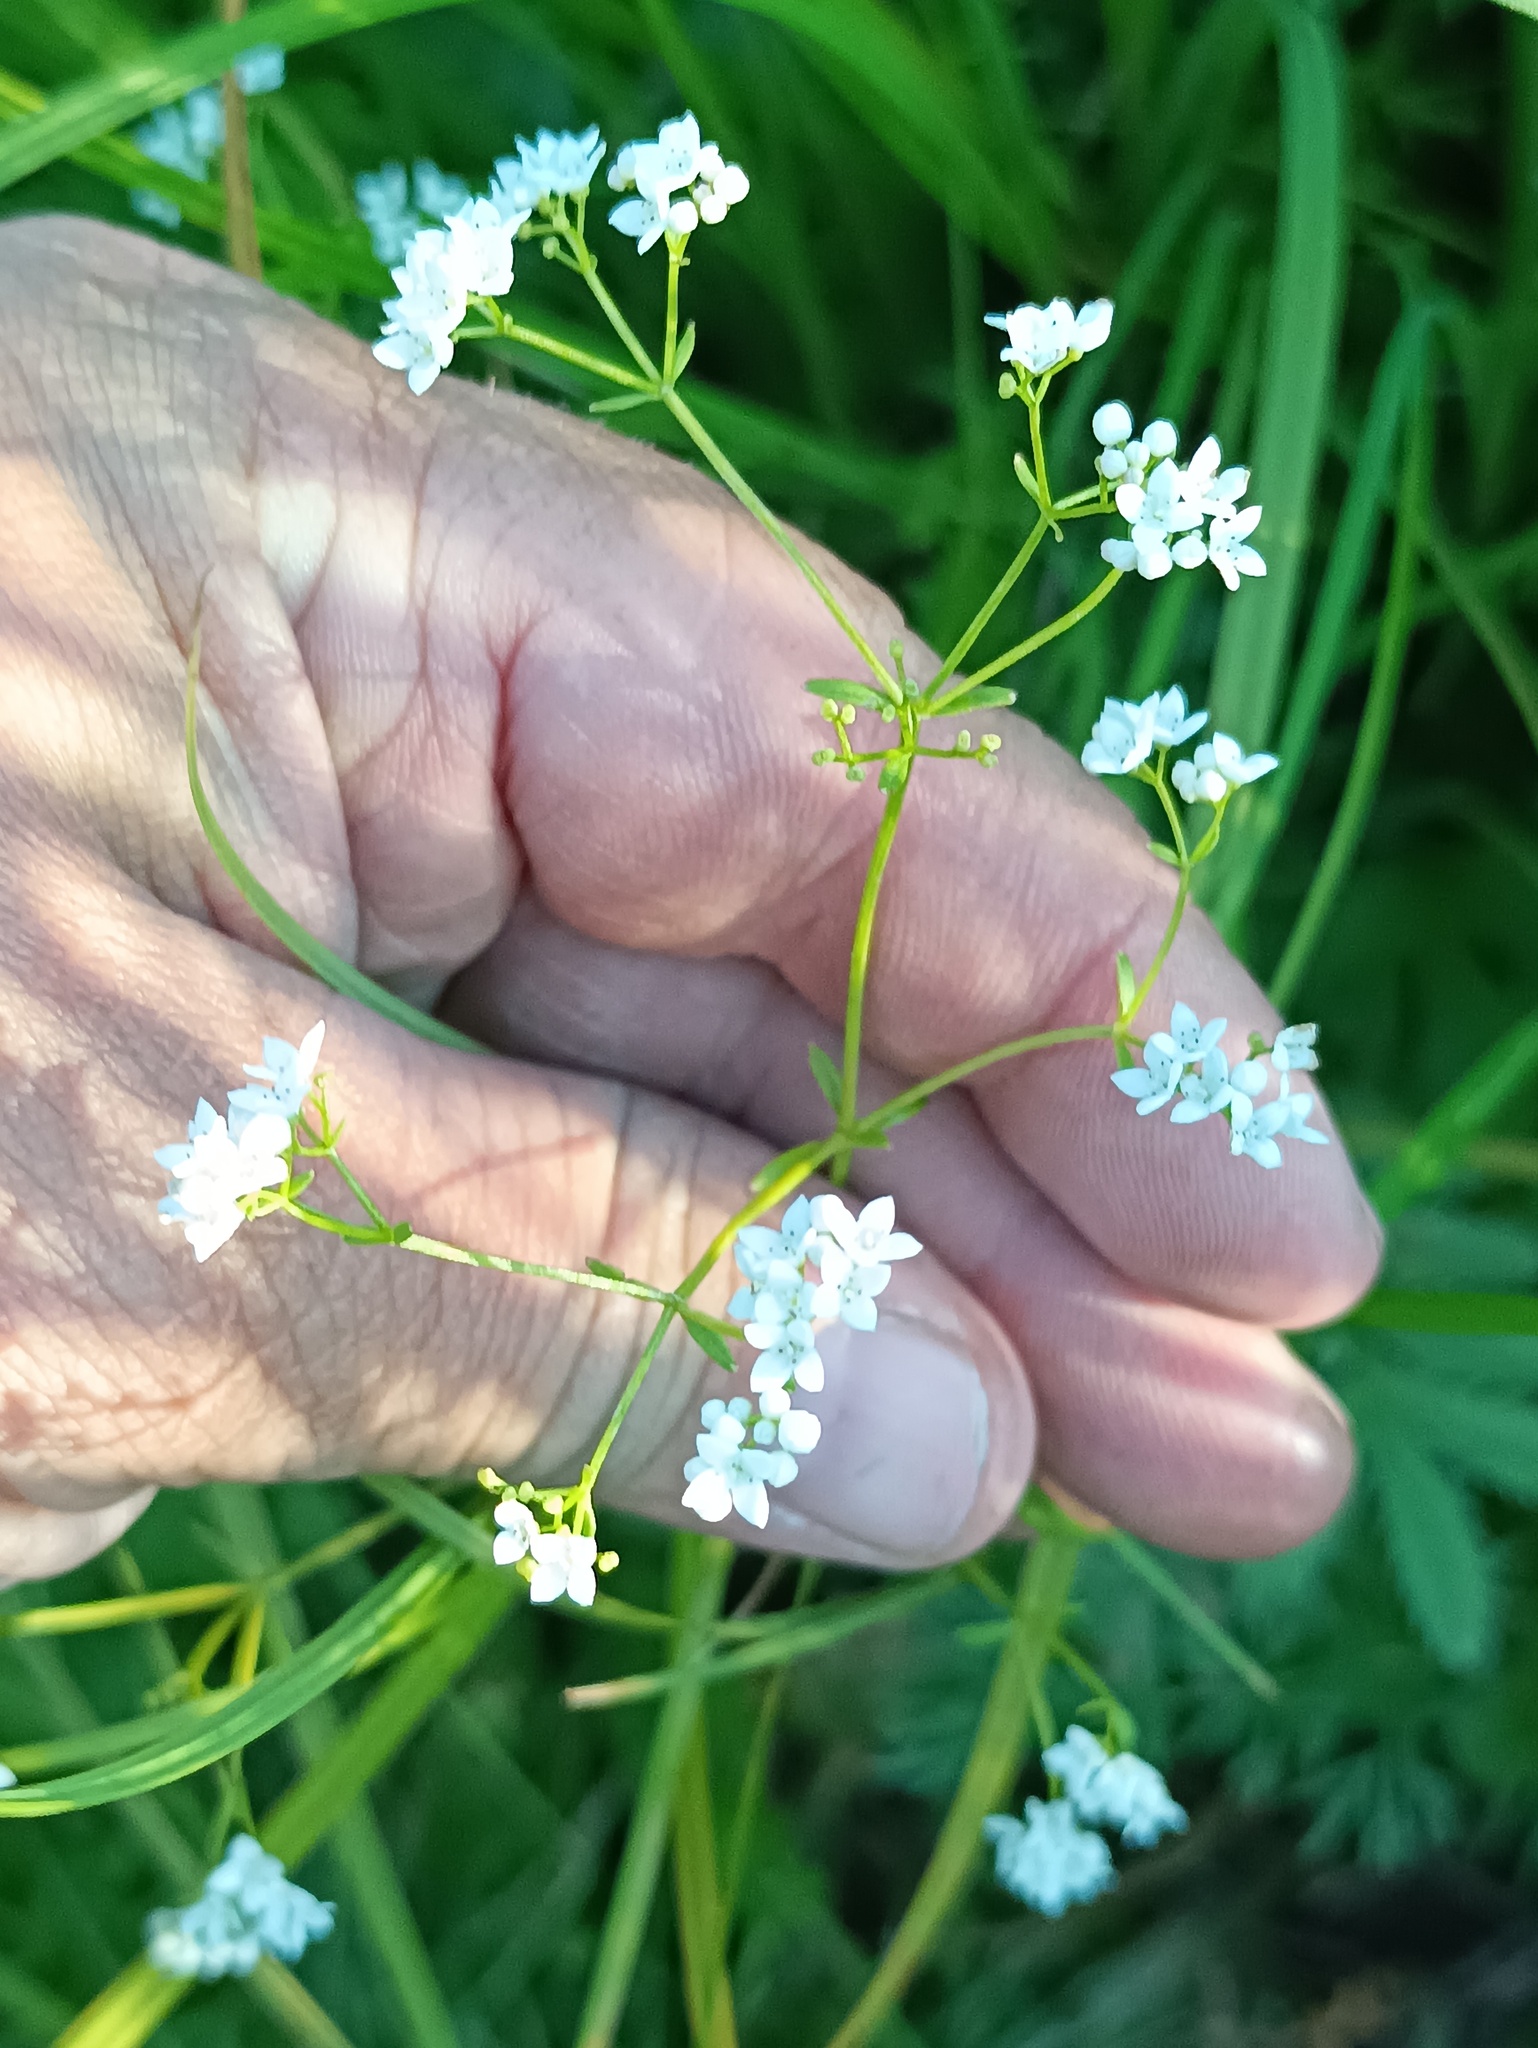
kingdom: Plantae
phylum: Tracheophyta
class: Magnoliopsida
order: Gentianales
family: Rubiaceae
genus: Galium
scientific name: Galium palustre
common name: Common marsh-bedstraw
